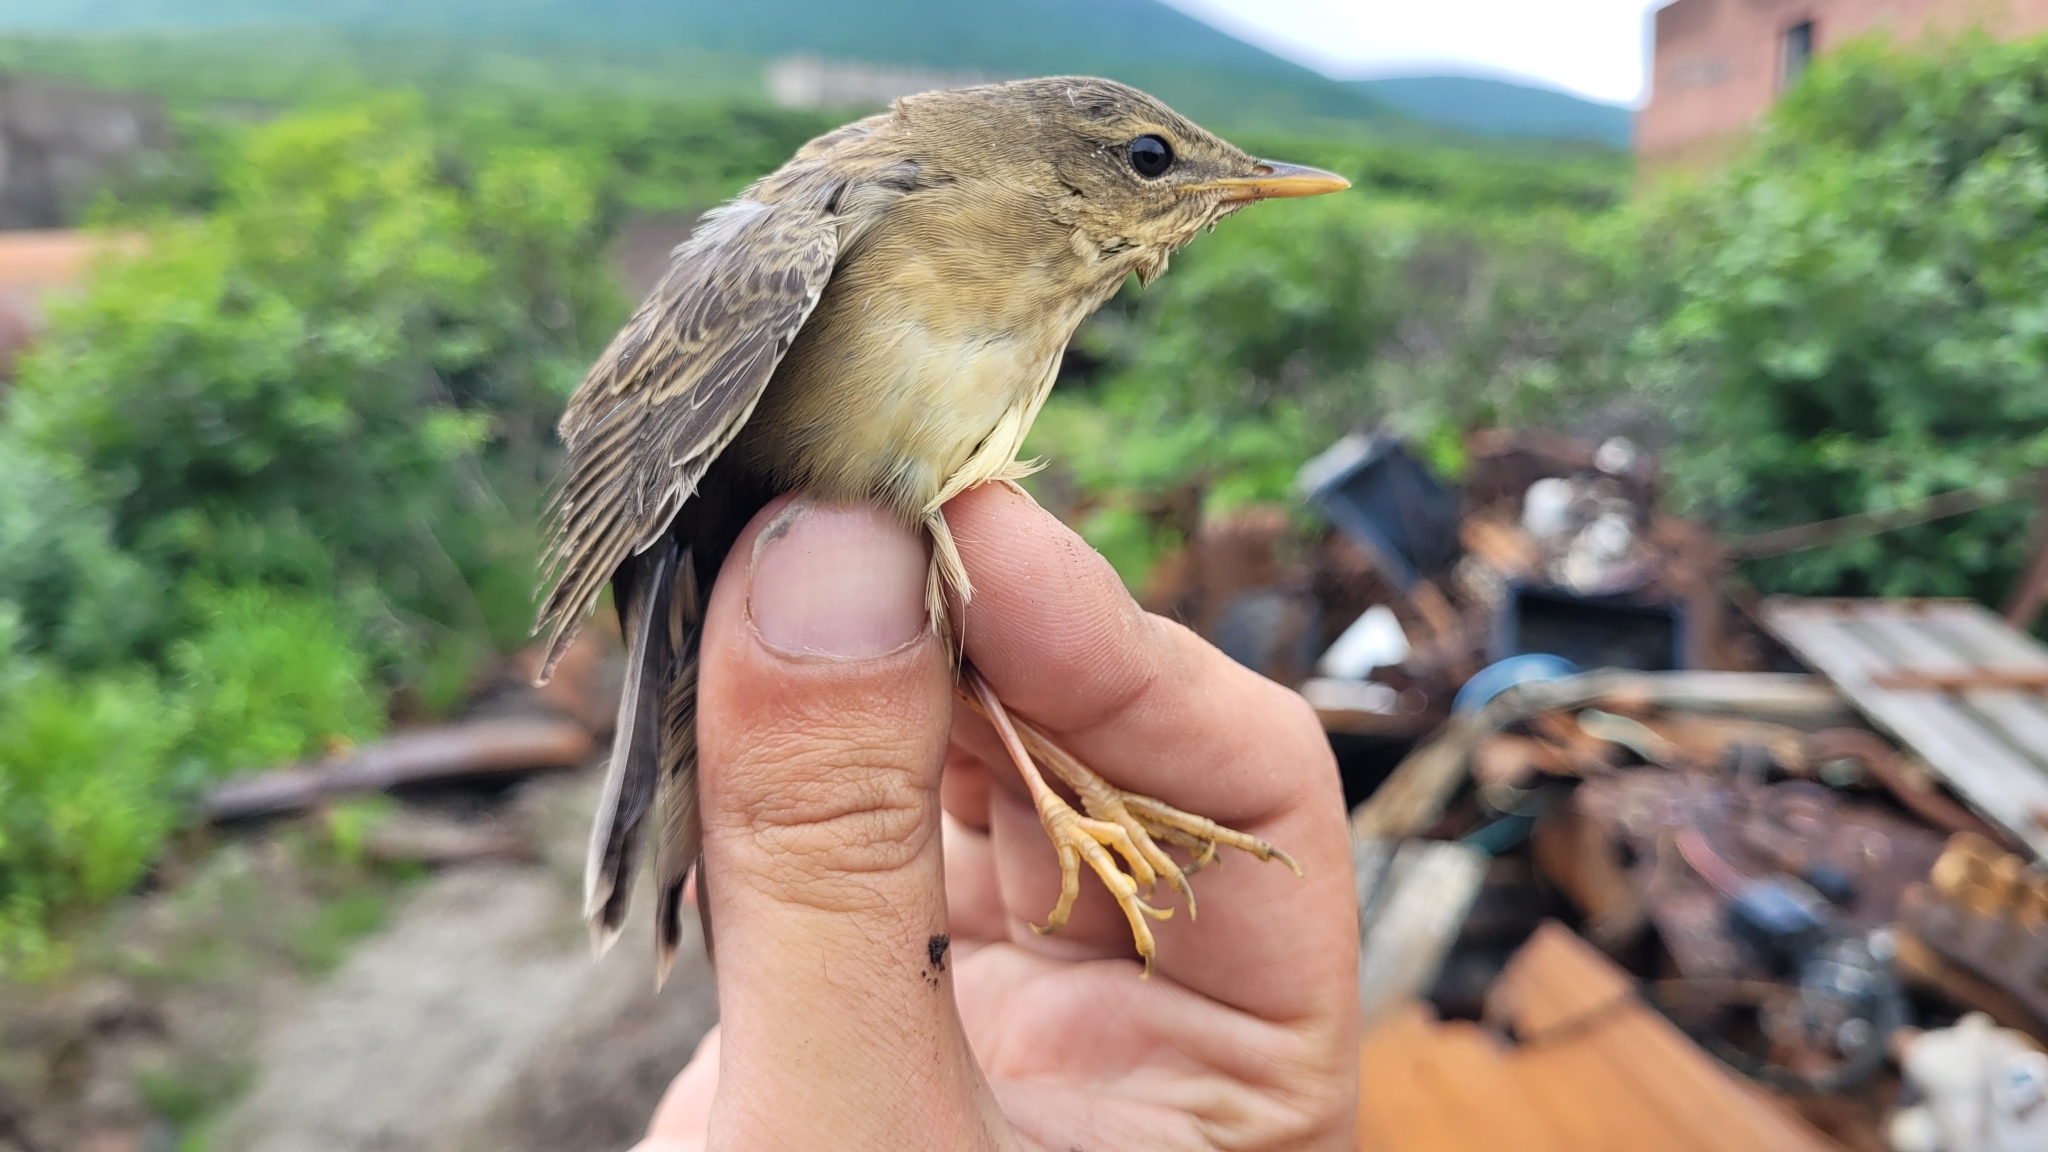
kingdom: Animalia
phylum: Chordata
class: Aves
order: Passeriformes
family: Locustellidae
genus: Locustella
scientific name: Locustella ochotensis
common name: Middendorff's grasshopper-warbler
